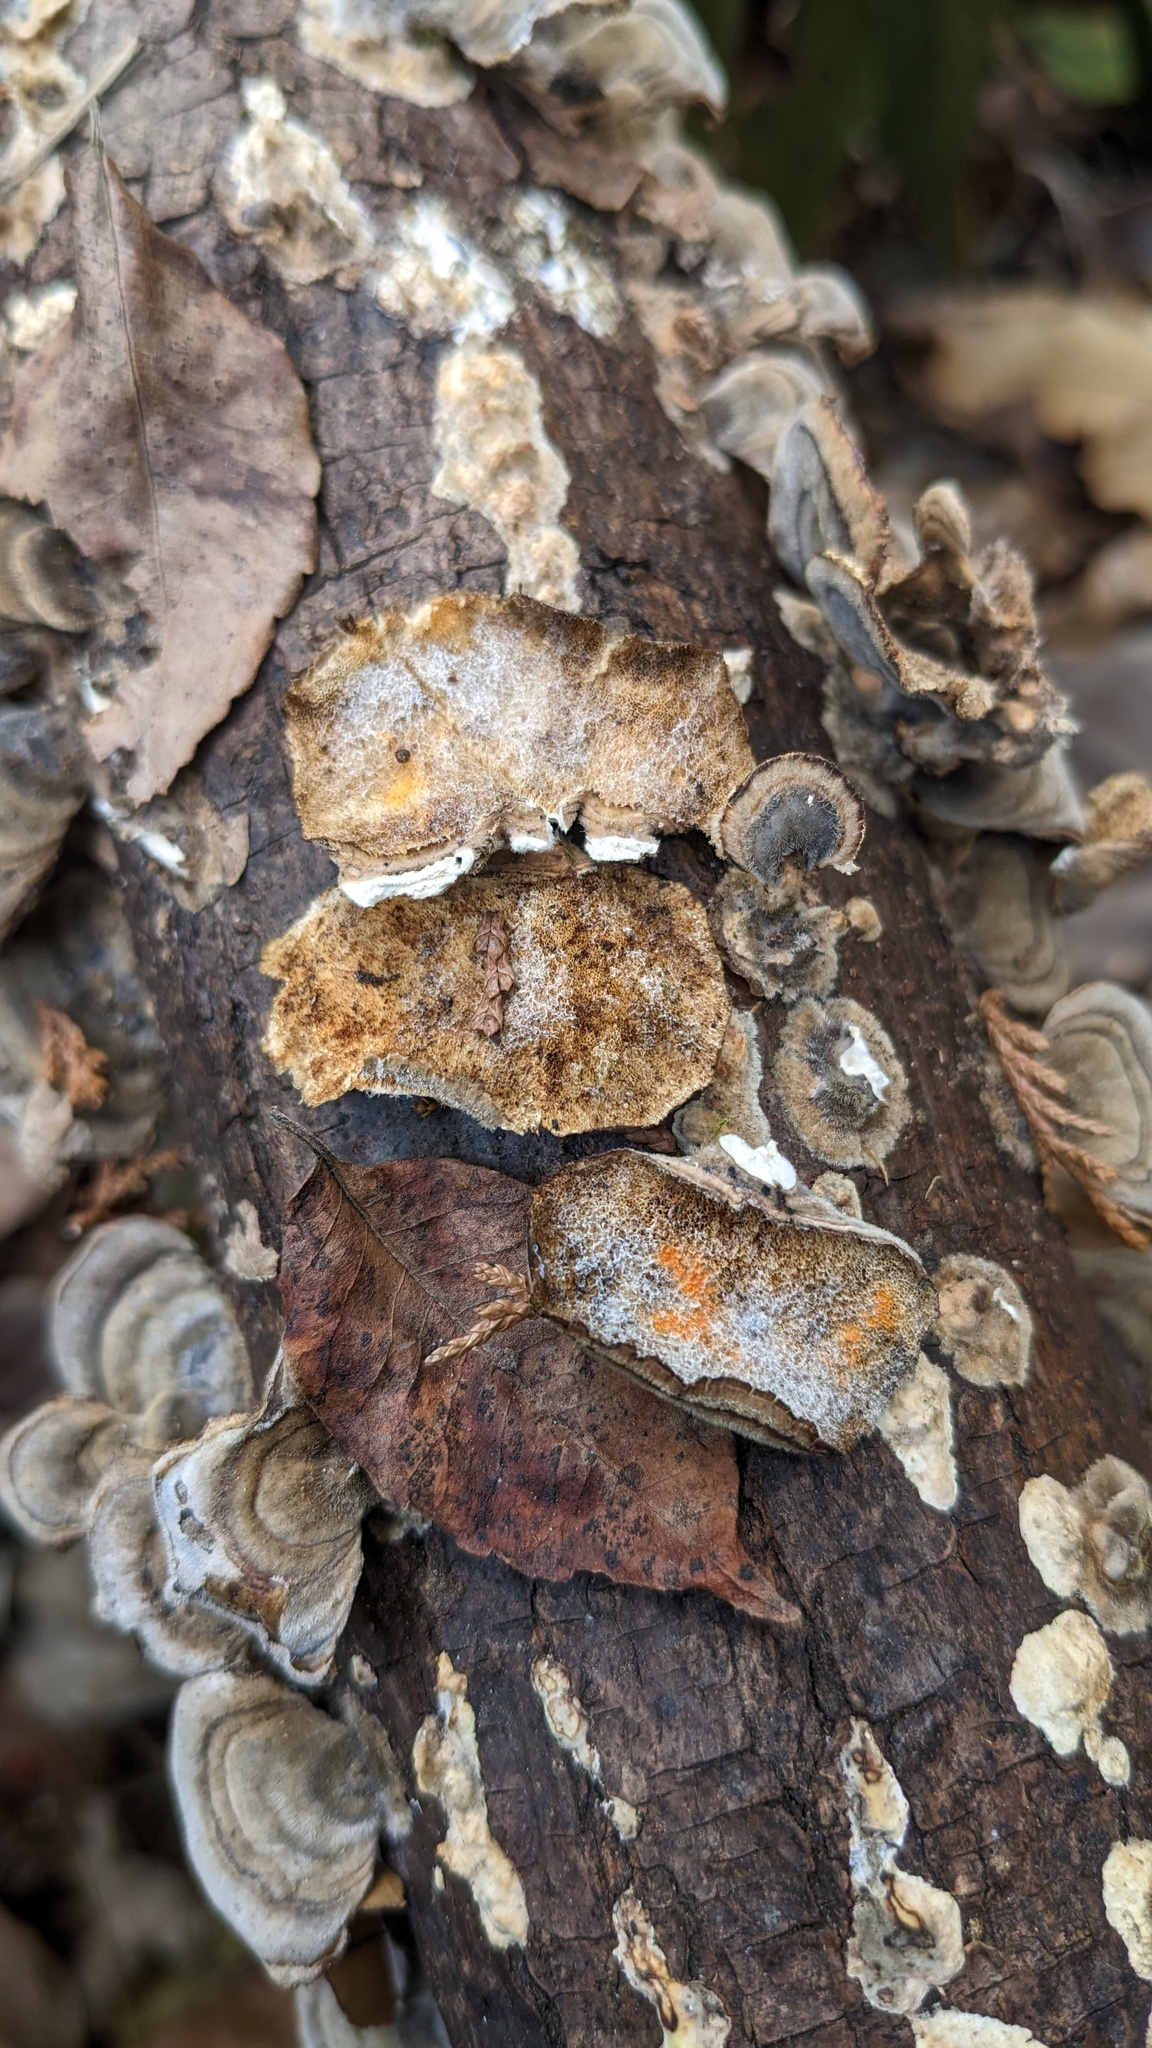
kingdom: Fungi
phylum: Basidiomycota
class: Agaricomycetes
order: Polyporales
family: Polyporaceae
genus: Trametes
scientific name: Trametes versicolor
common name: Turkeytail
